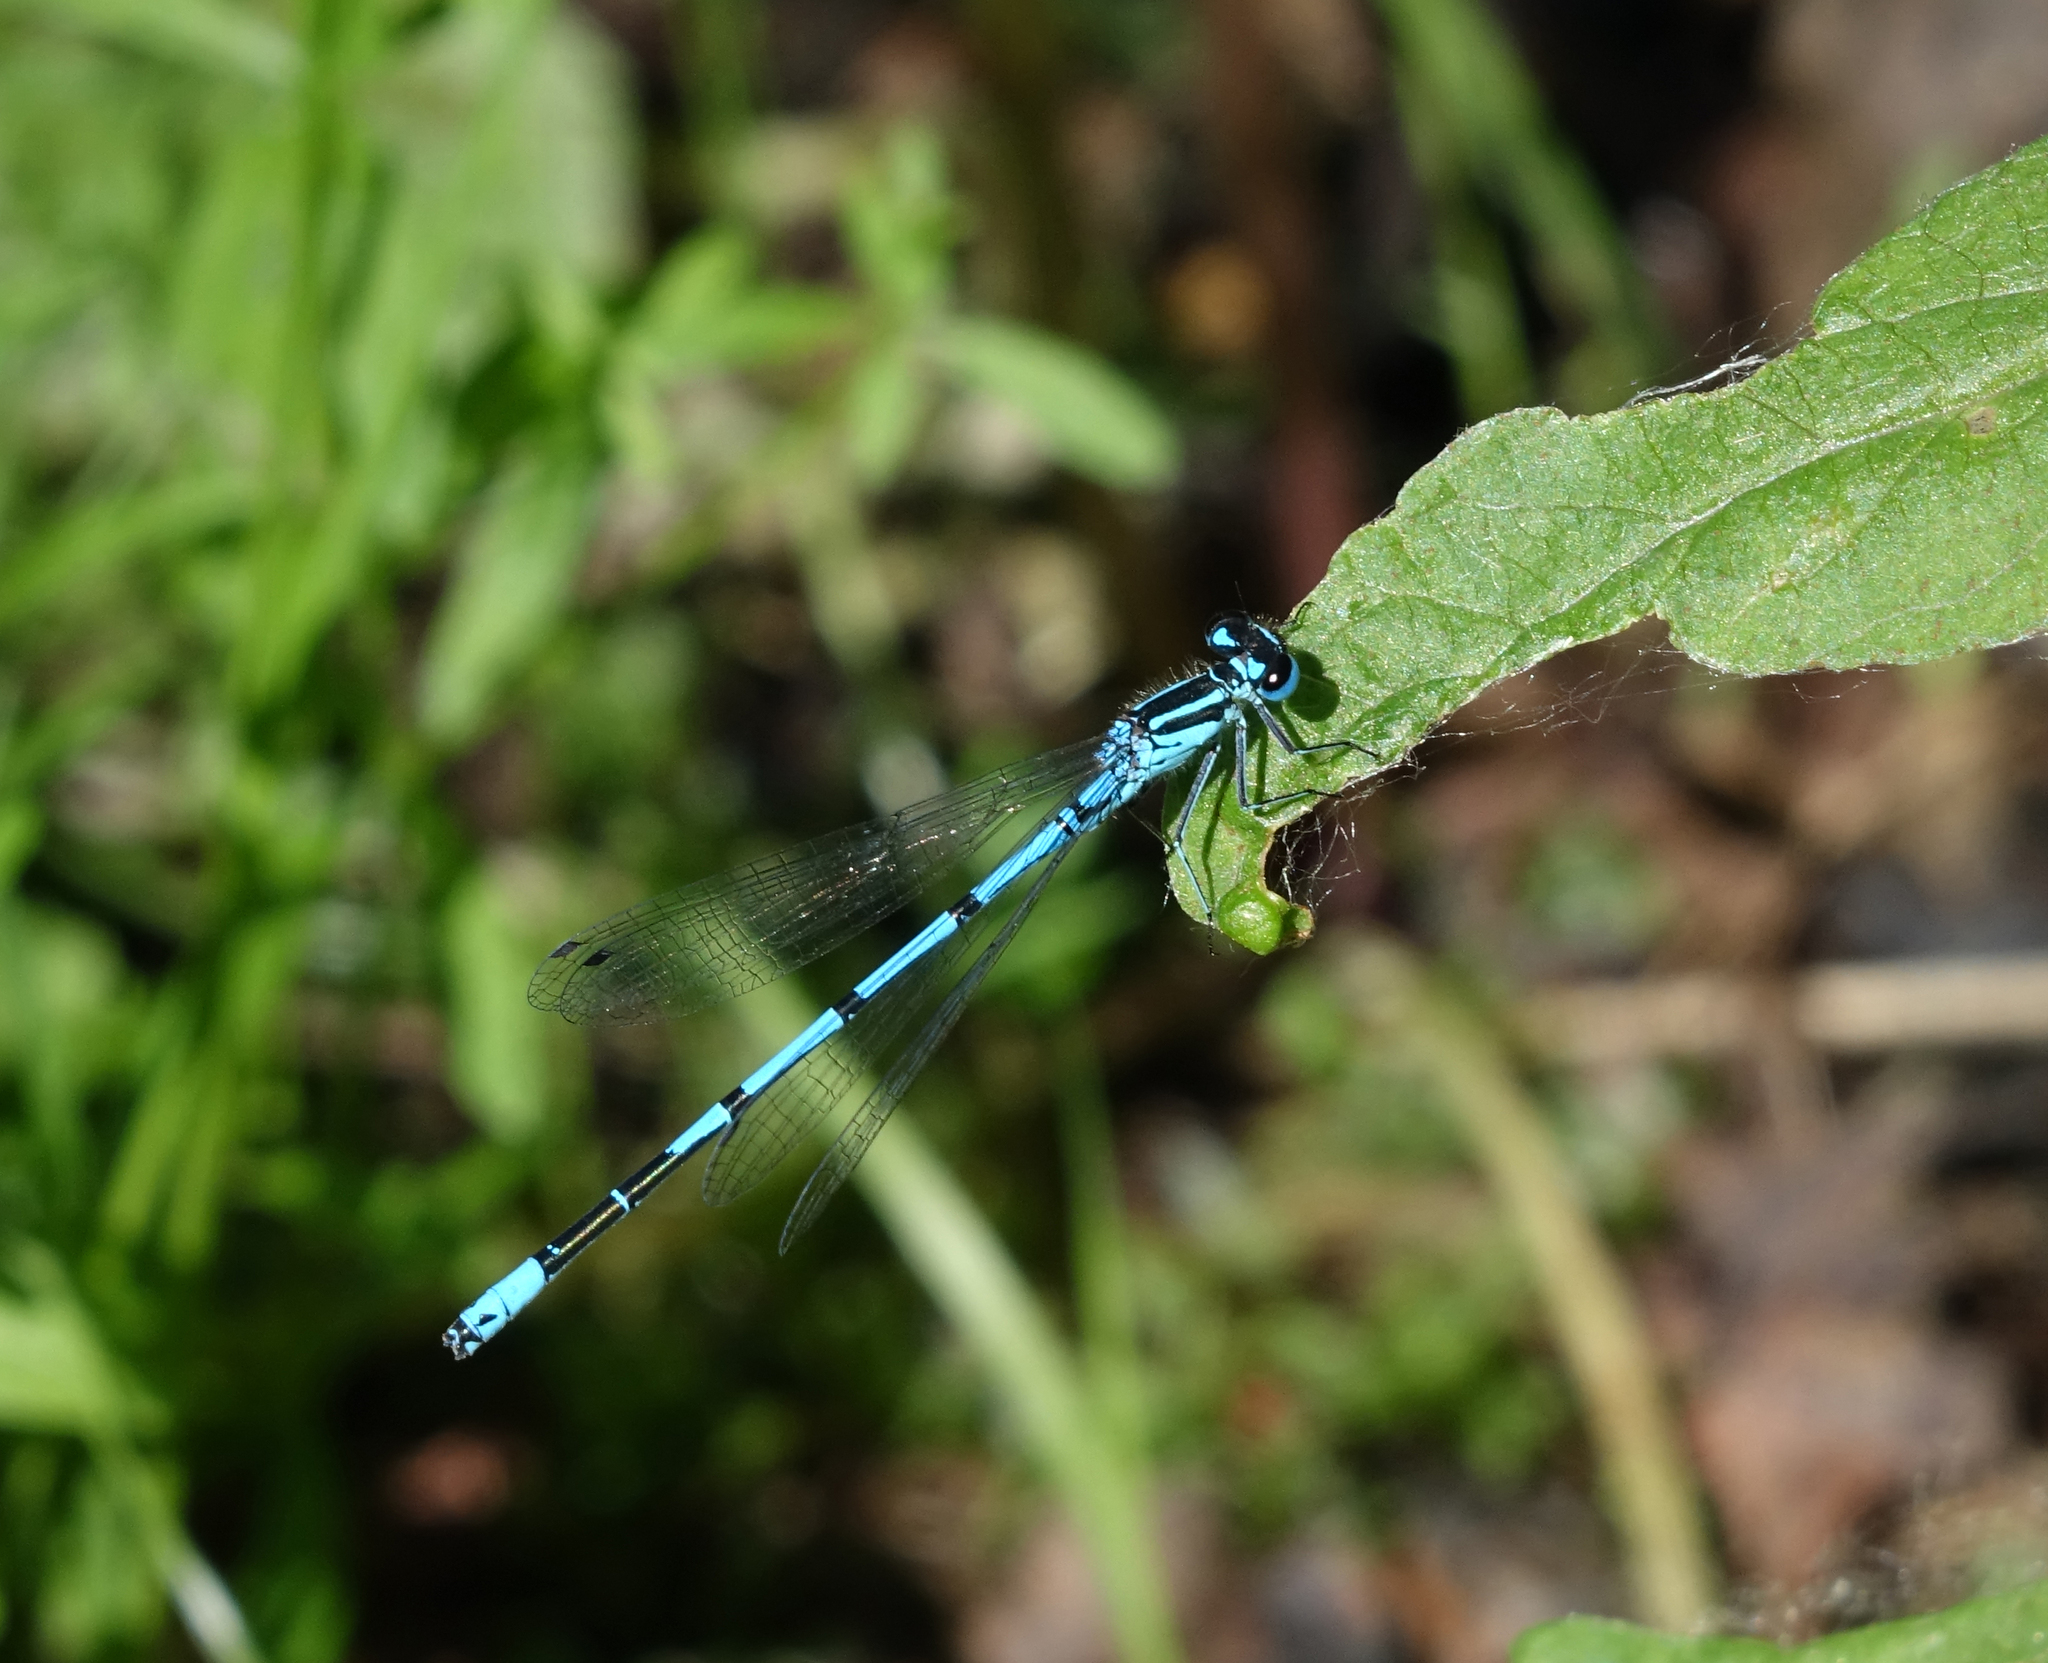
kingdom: Animalia
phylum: Arthropoda
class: Insecta
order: Odonata
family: Coenagrionidae
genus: Coenagrion
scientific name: Coenagrion puella
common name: Azure damselfly
